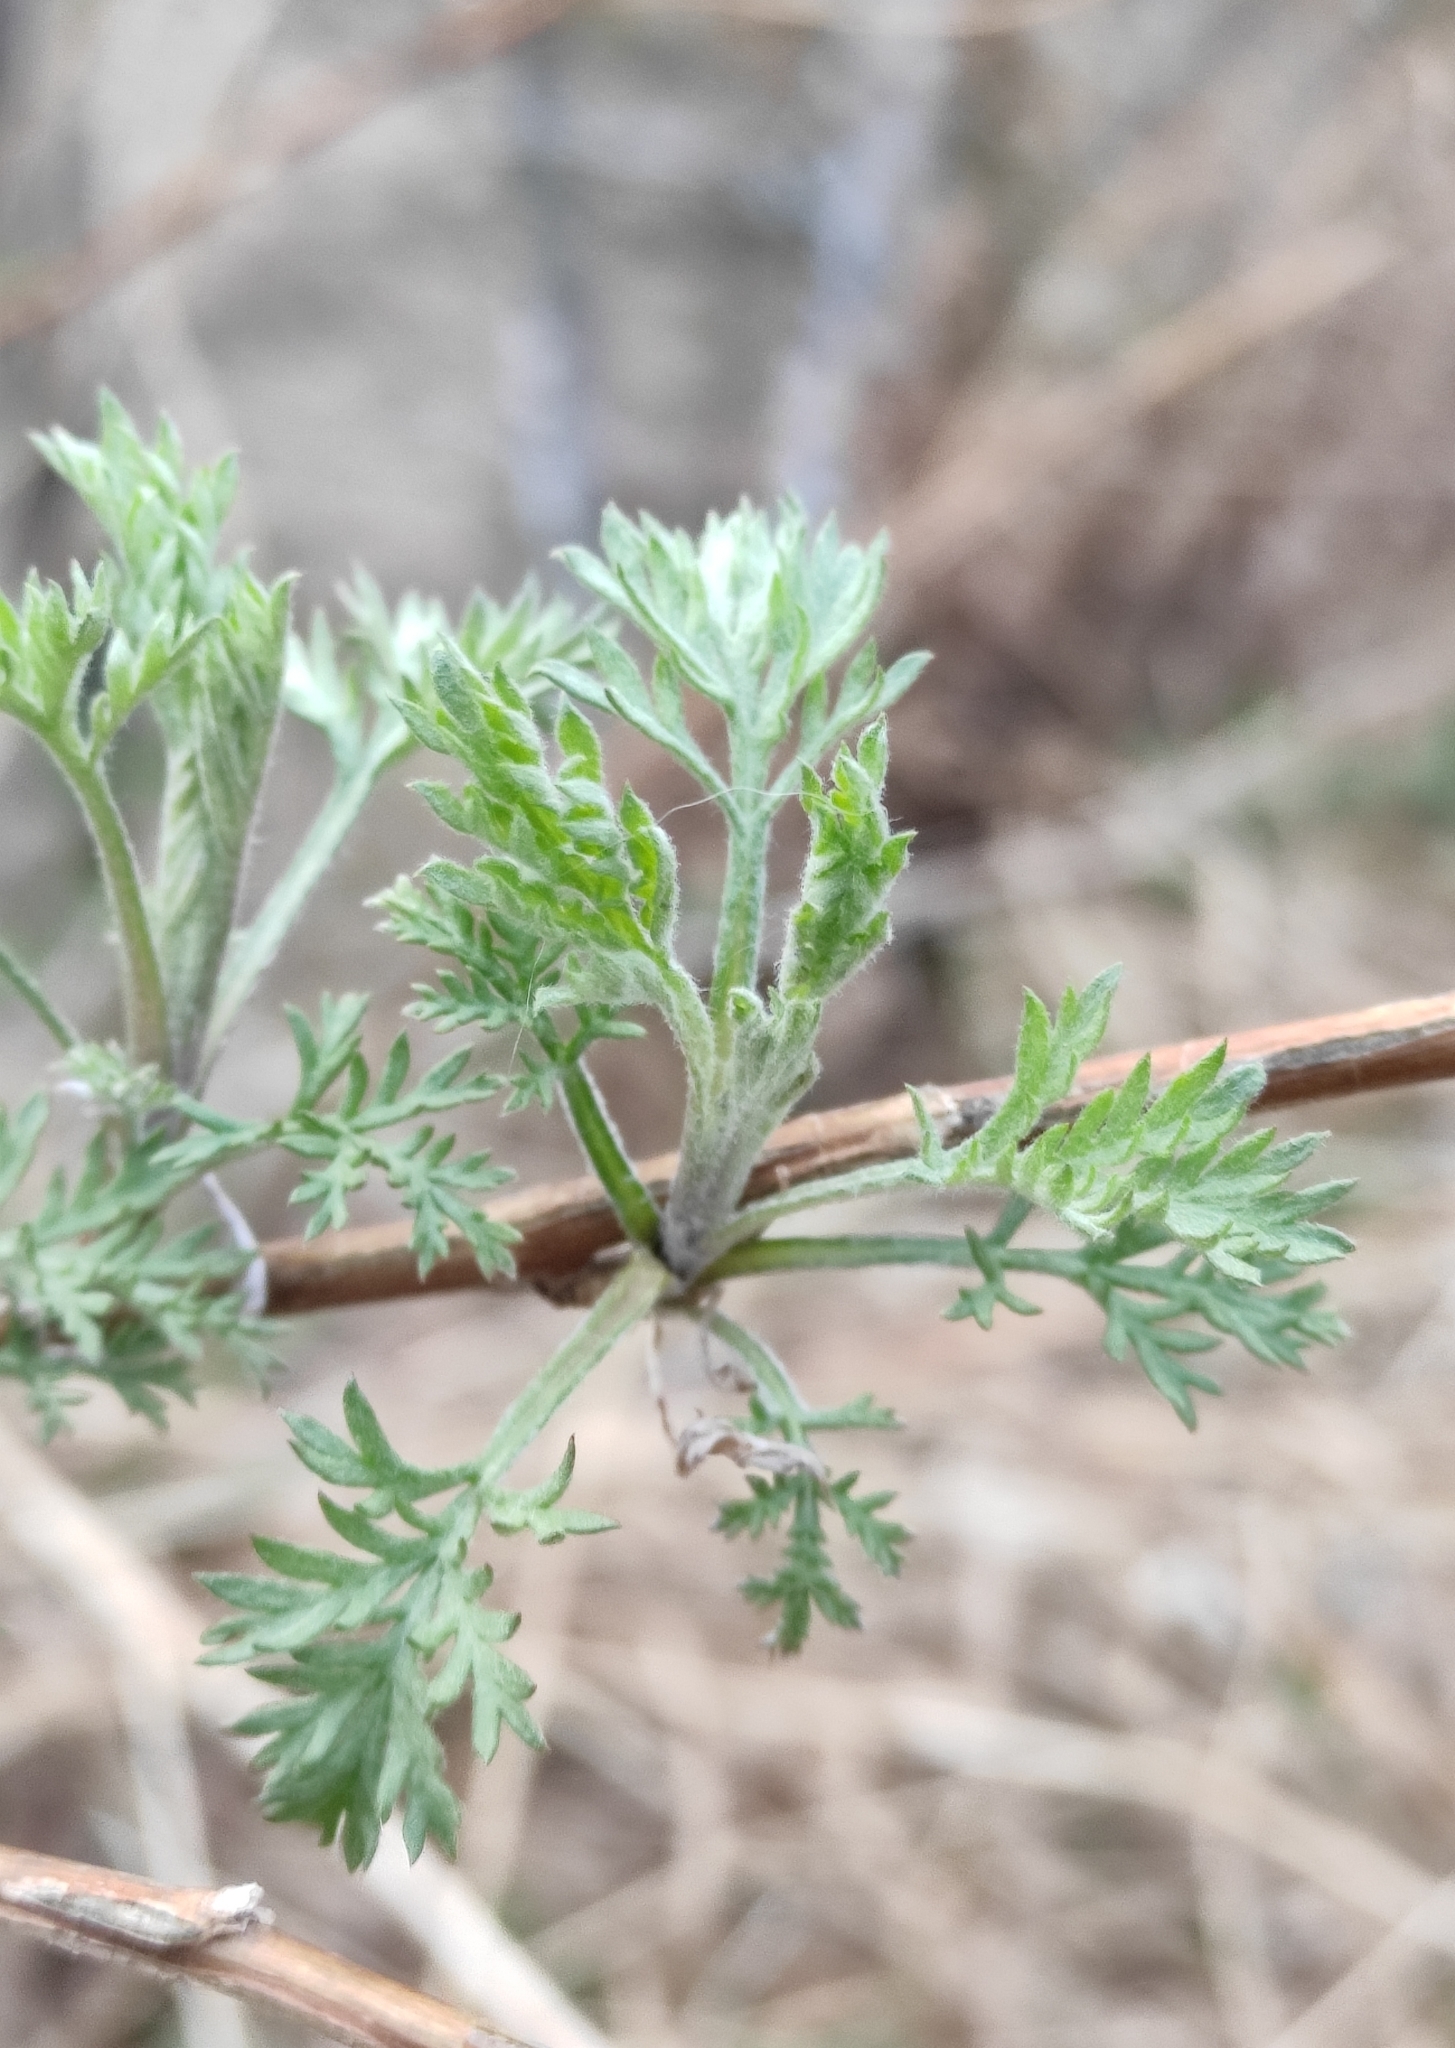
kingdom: Plantae
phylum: Tracheophyta
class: Magnoliopsida
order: Asterales
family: Asteraceae
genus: Artemisia
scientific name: Artemisia gmelinii
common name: Gmelin's wormwood
